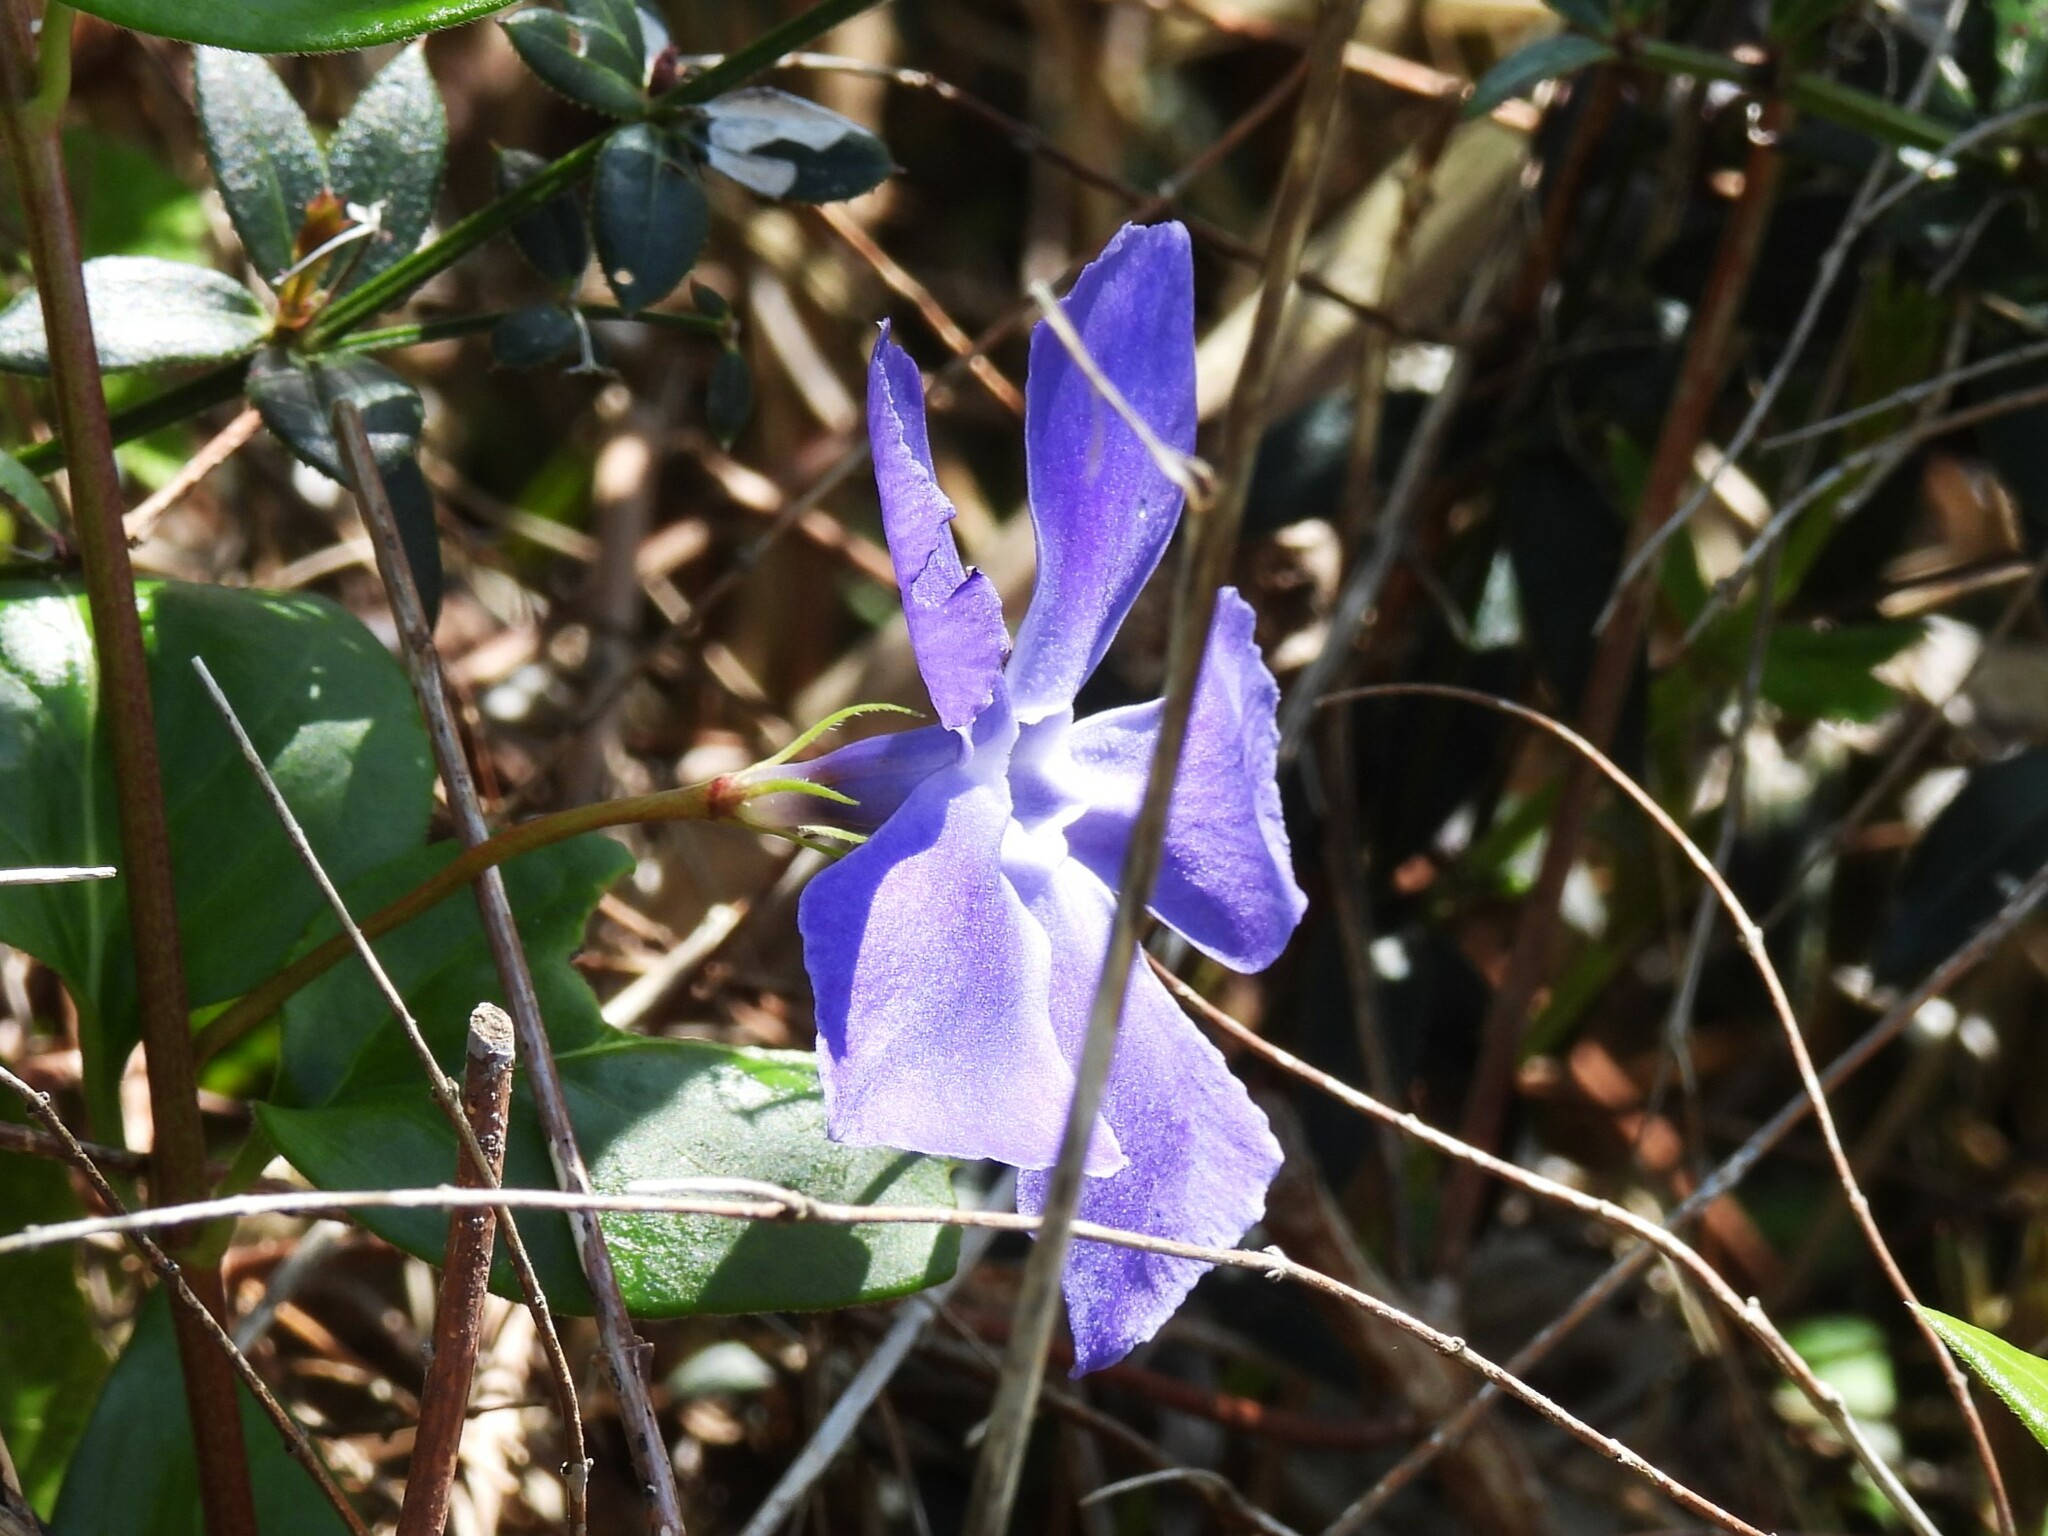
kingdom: Plantae
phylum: Tracheophyta
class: Magnoliopsida
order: Gentianales
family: Apocynaceae
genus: Vinca
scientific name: Vinca major
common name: Greater periwinkle
